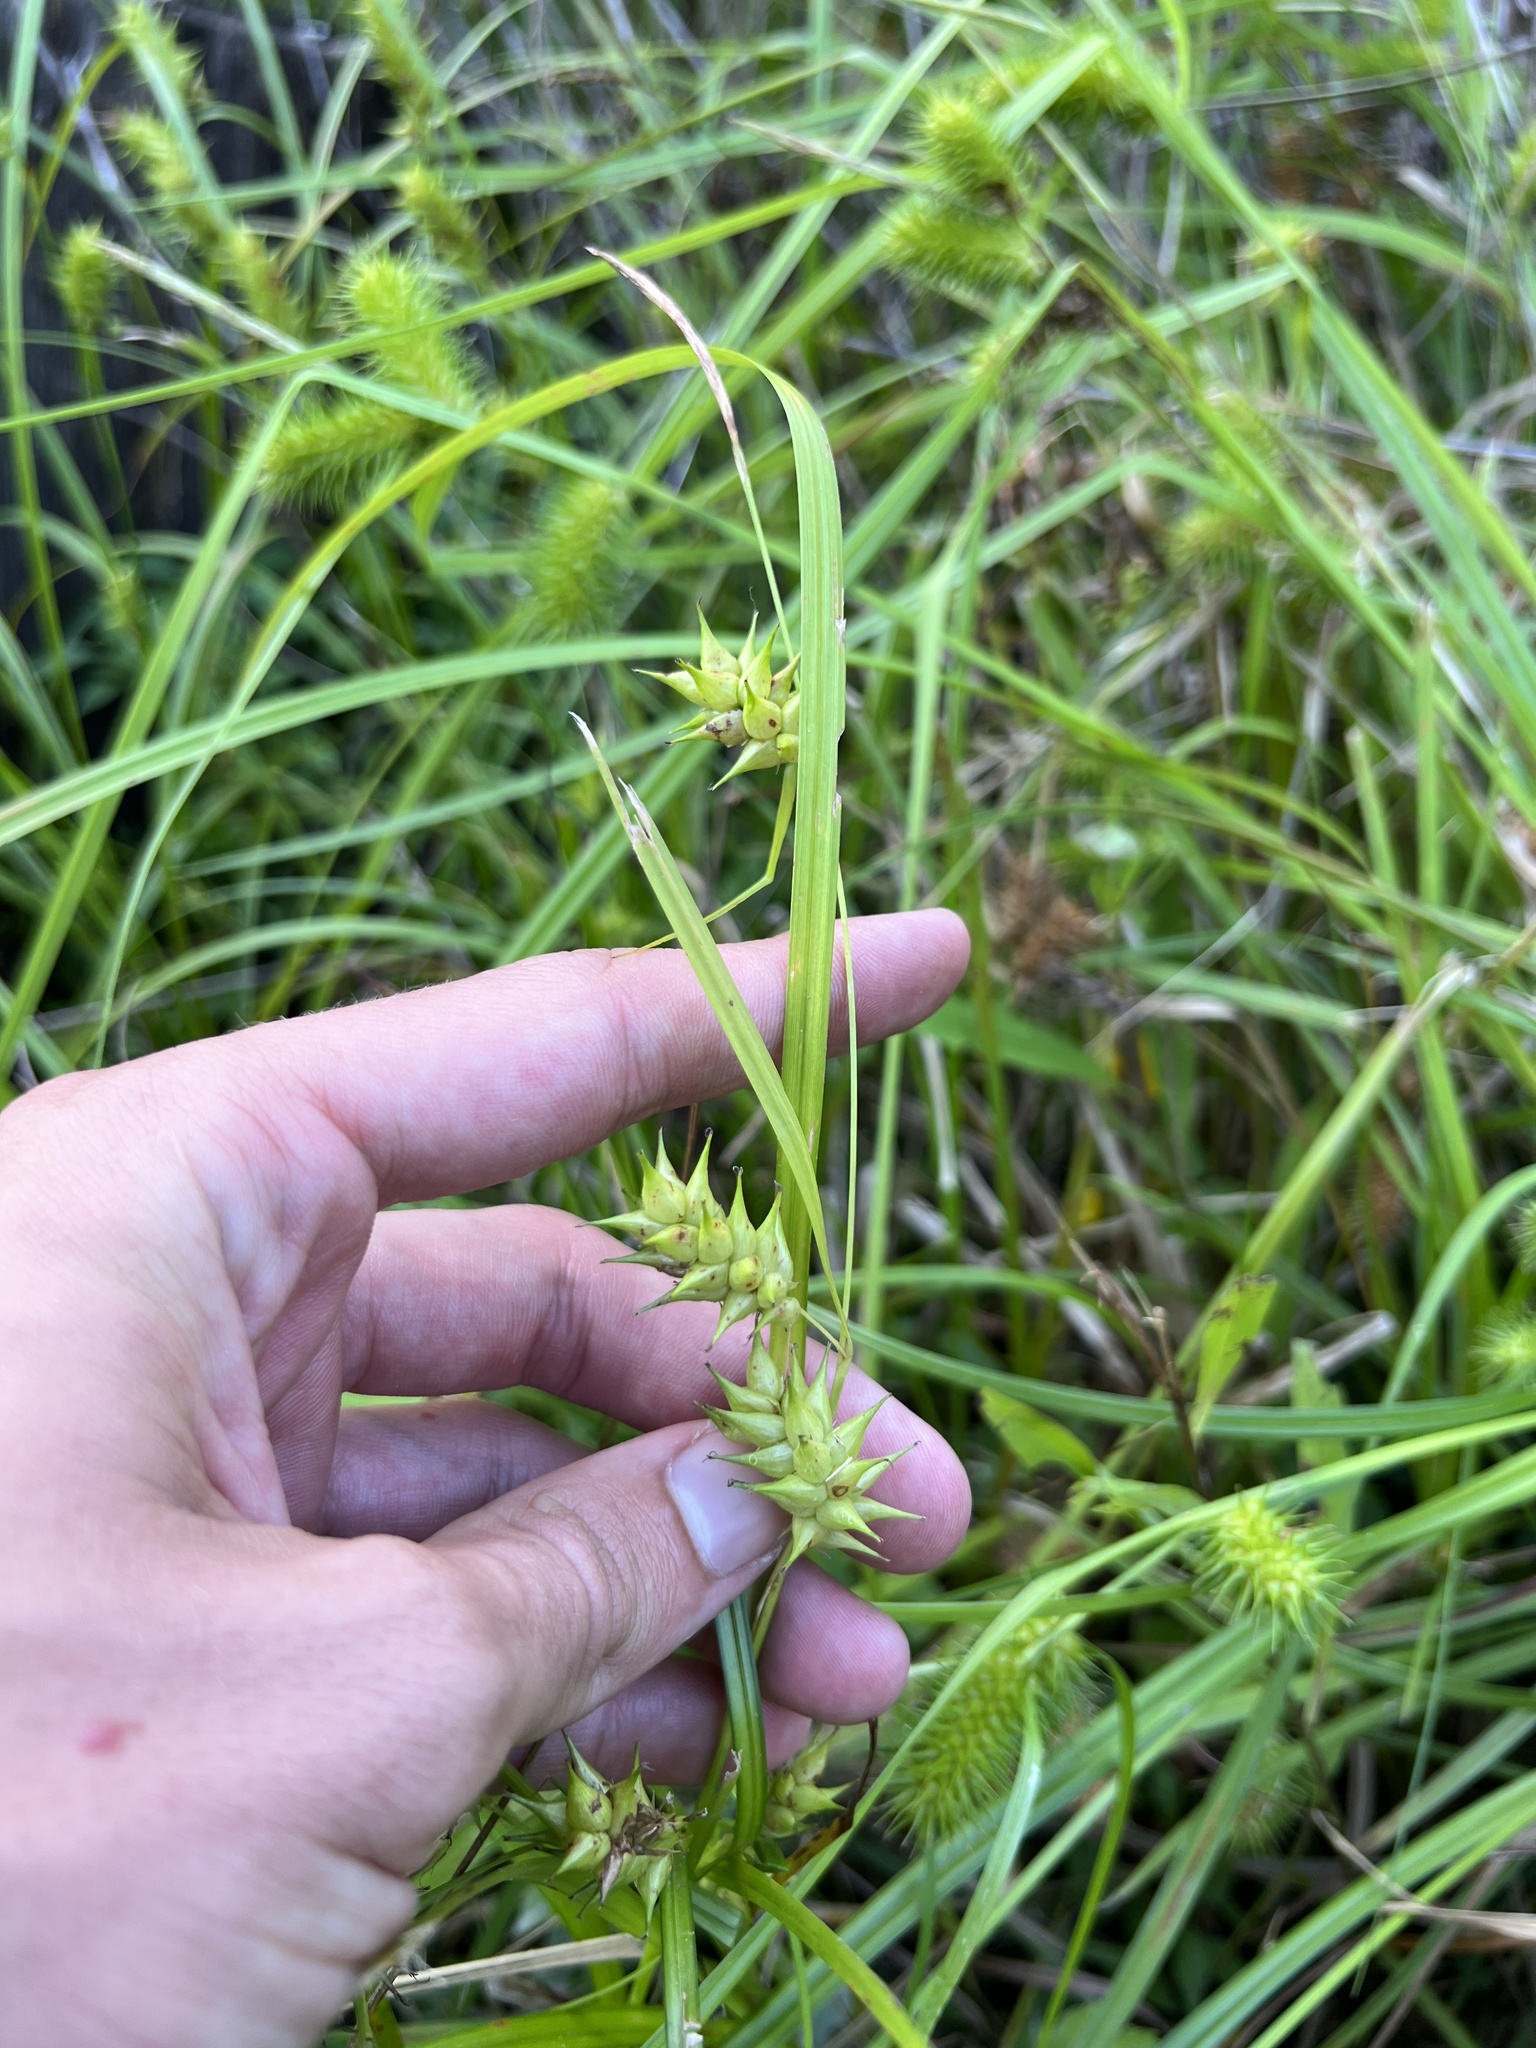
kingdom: Plantae
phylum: Tracheophyta
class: Liliopsida
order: Poales
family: Cyperaceae
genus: Carex
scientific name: Carex louisianica
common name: Louisiana sedge
